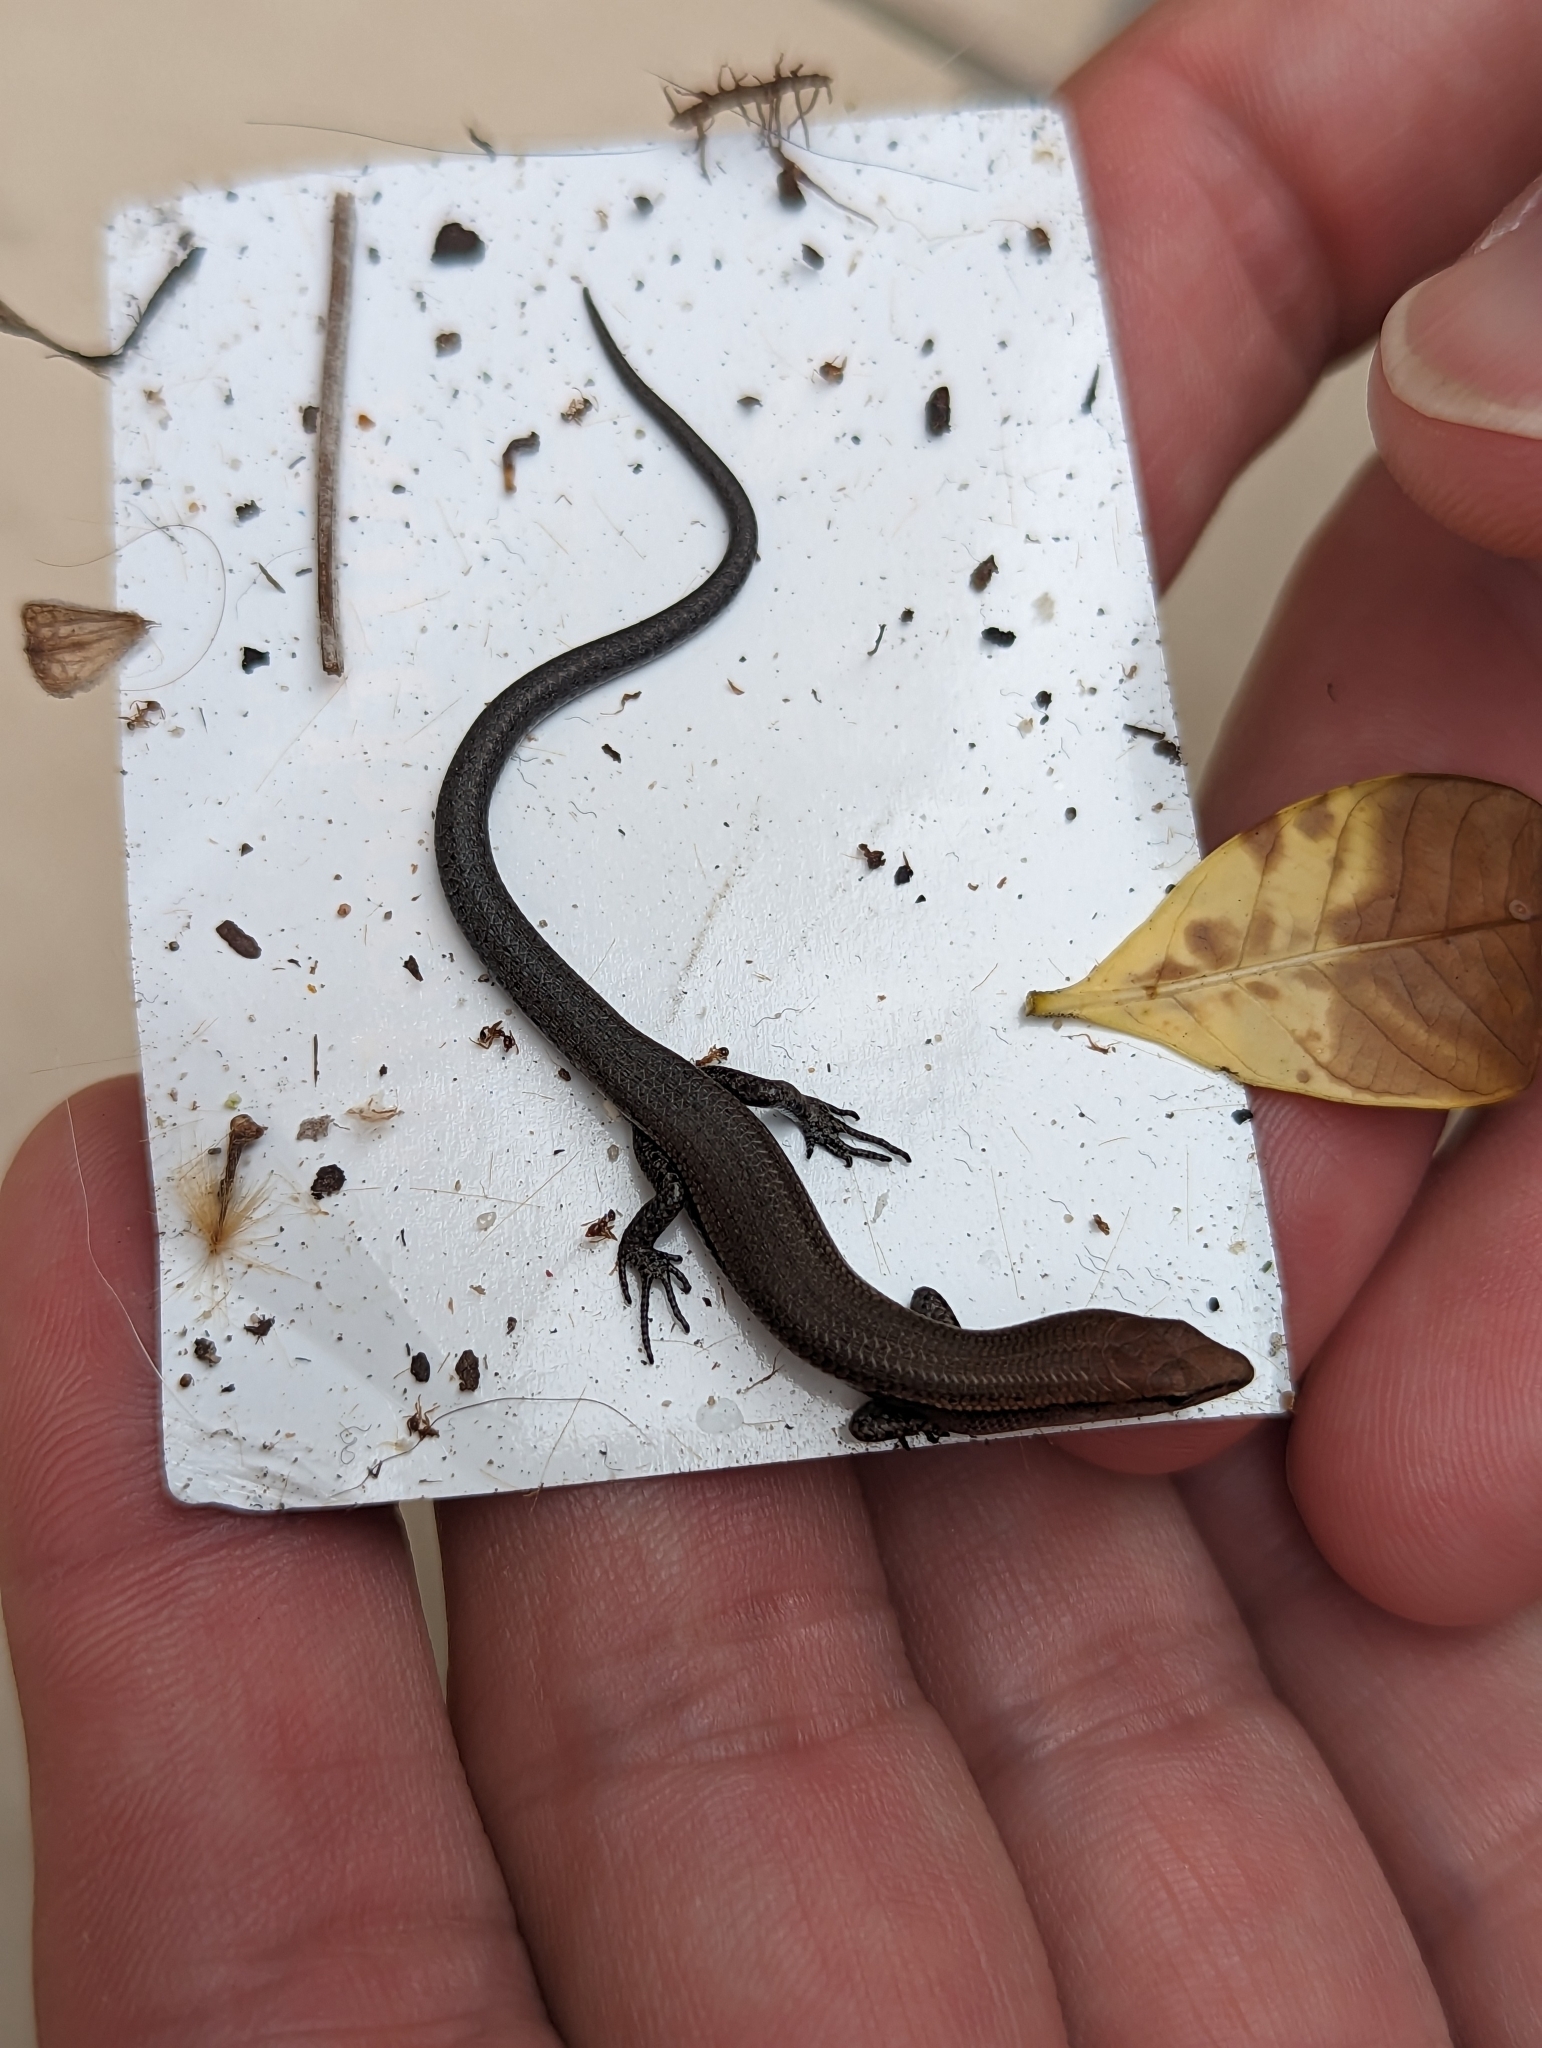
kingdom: Animalia
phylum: Chordata
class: Squamata
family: Scincidae
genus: Lampropholis
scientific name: Lampropholis delicata
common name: Plague skink
